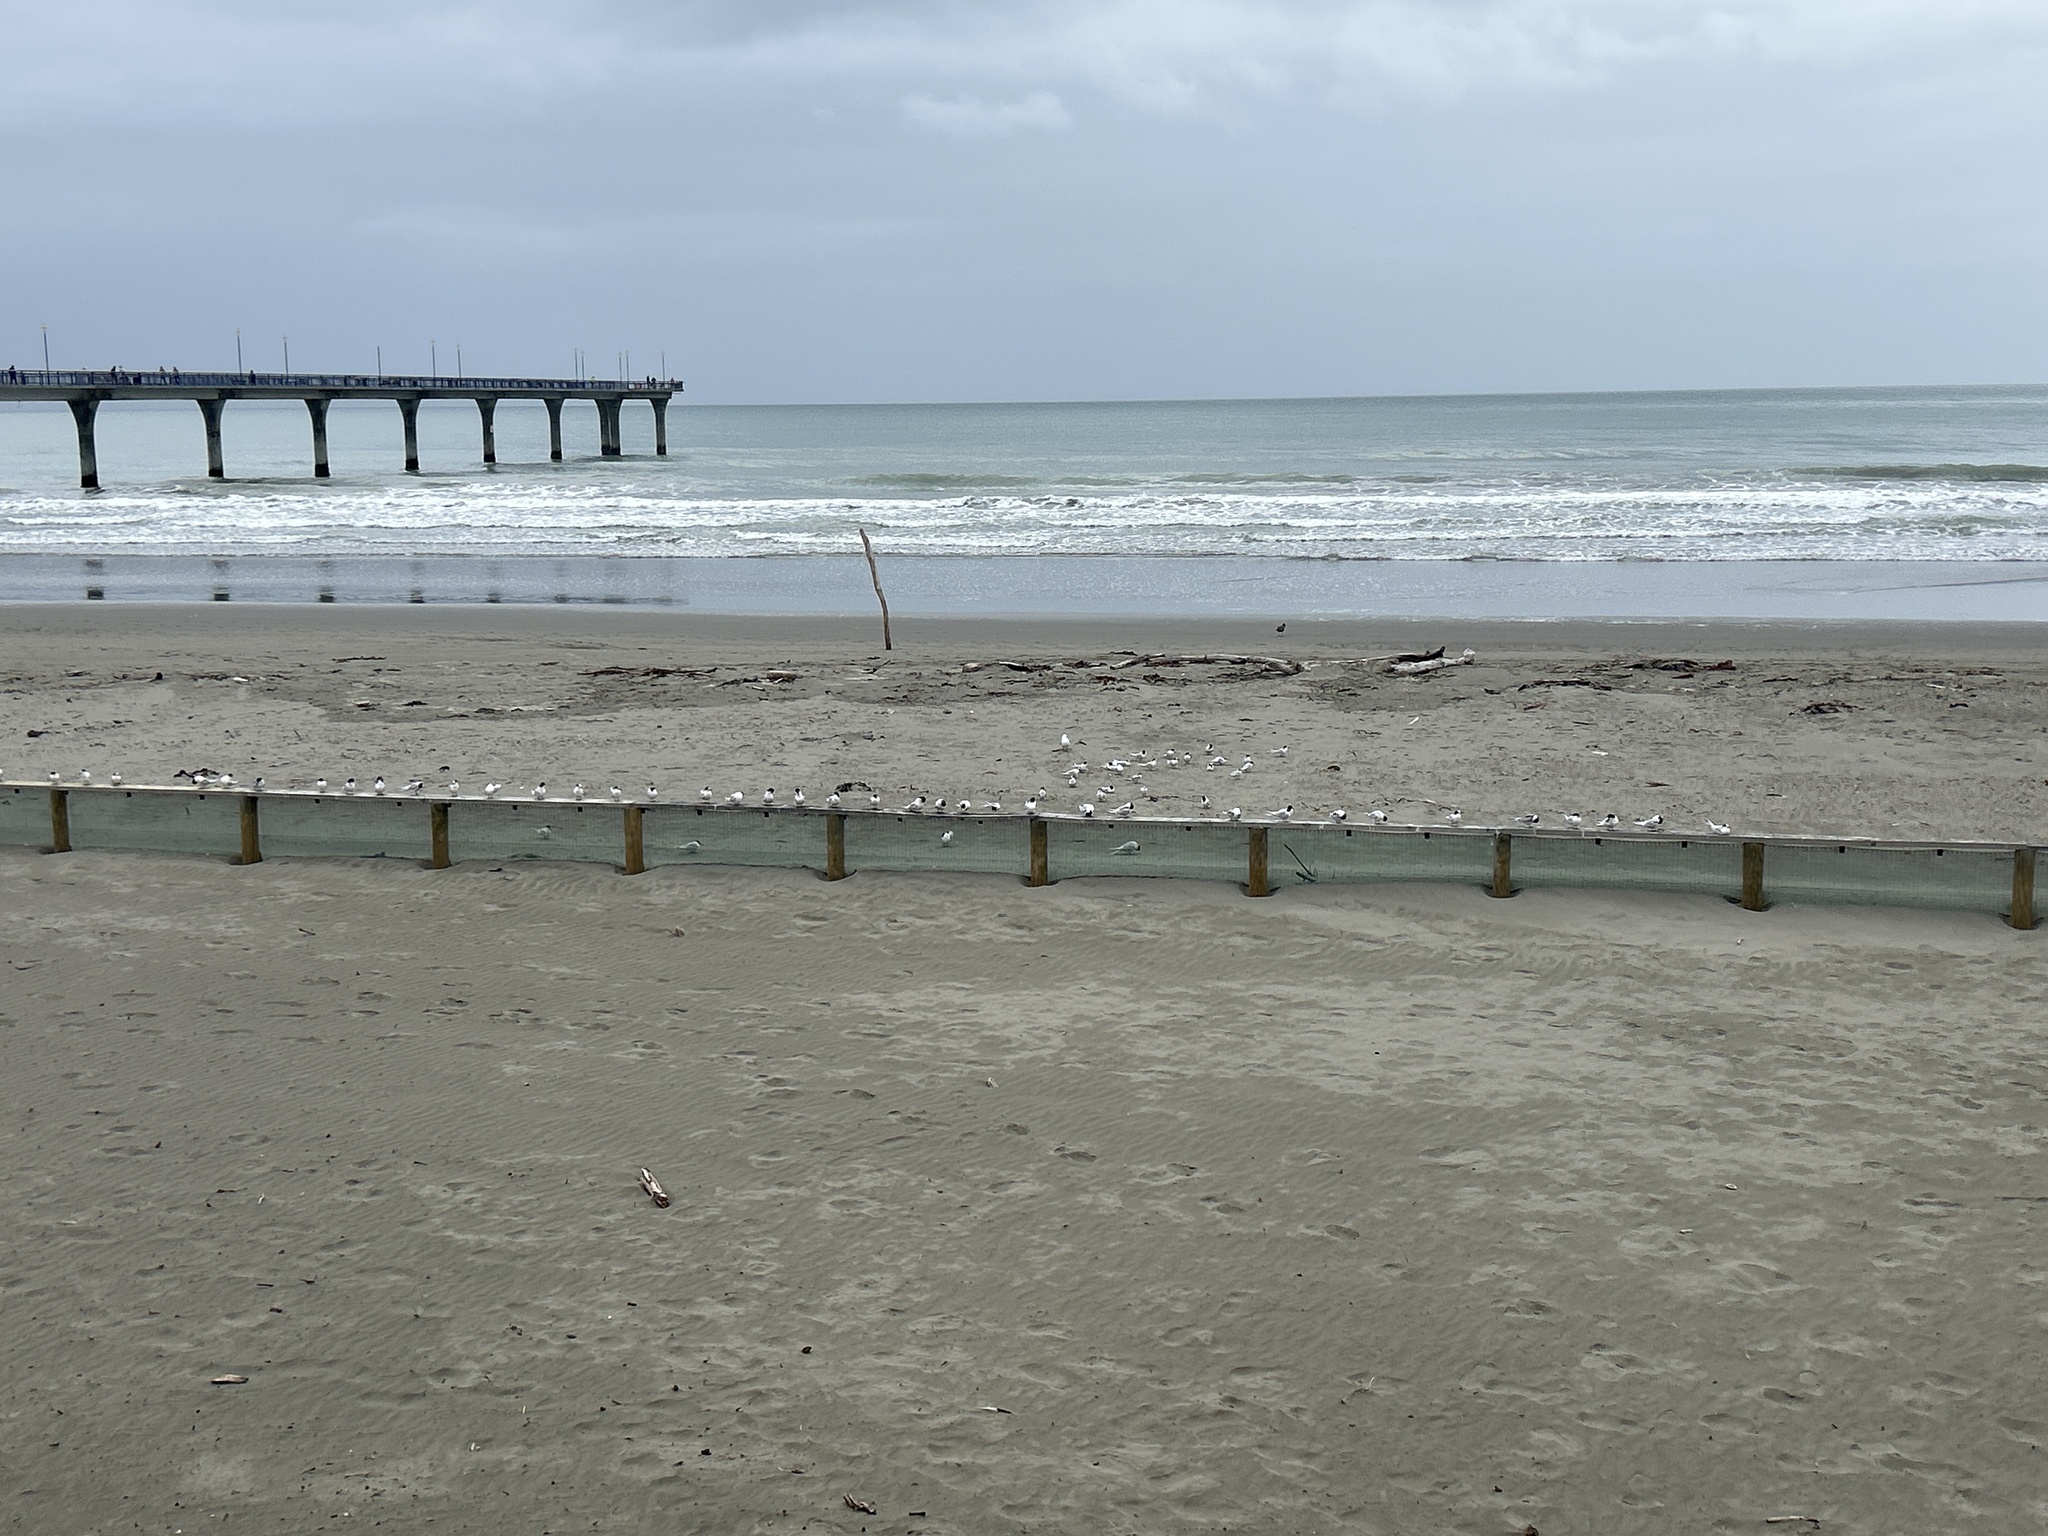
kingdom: Animalia
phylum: Chordata
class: Aves
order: Charadriiformes
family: Laridae
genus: Sterna
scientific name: Sterna striata
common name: White-fronted tern
